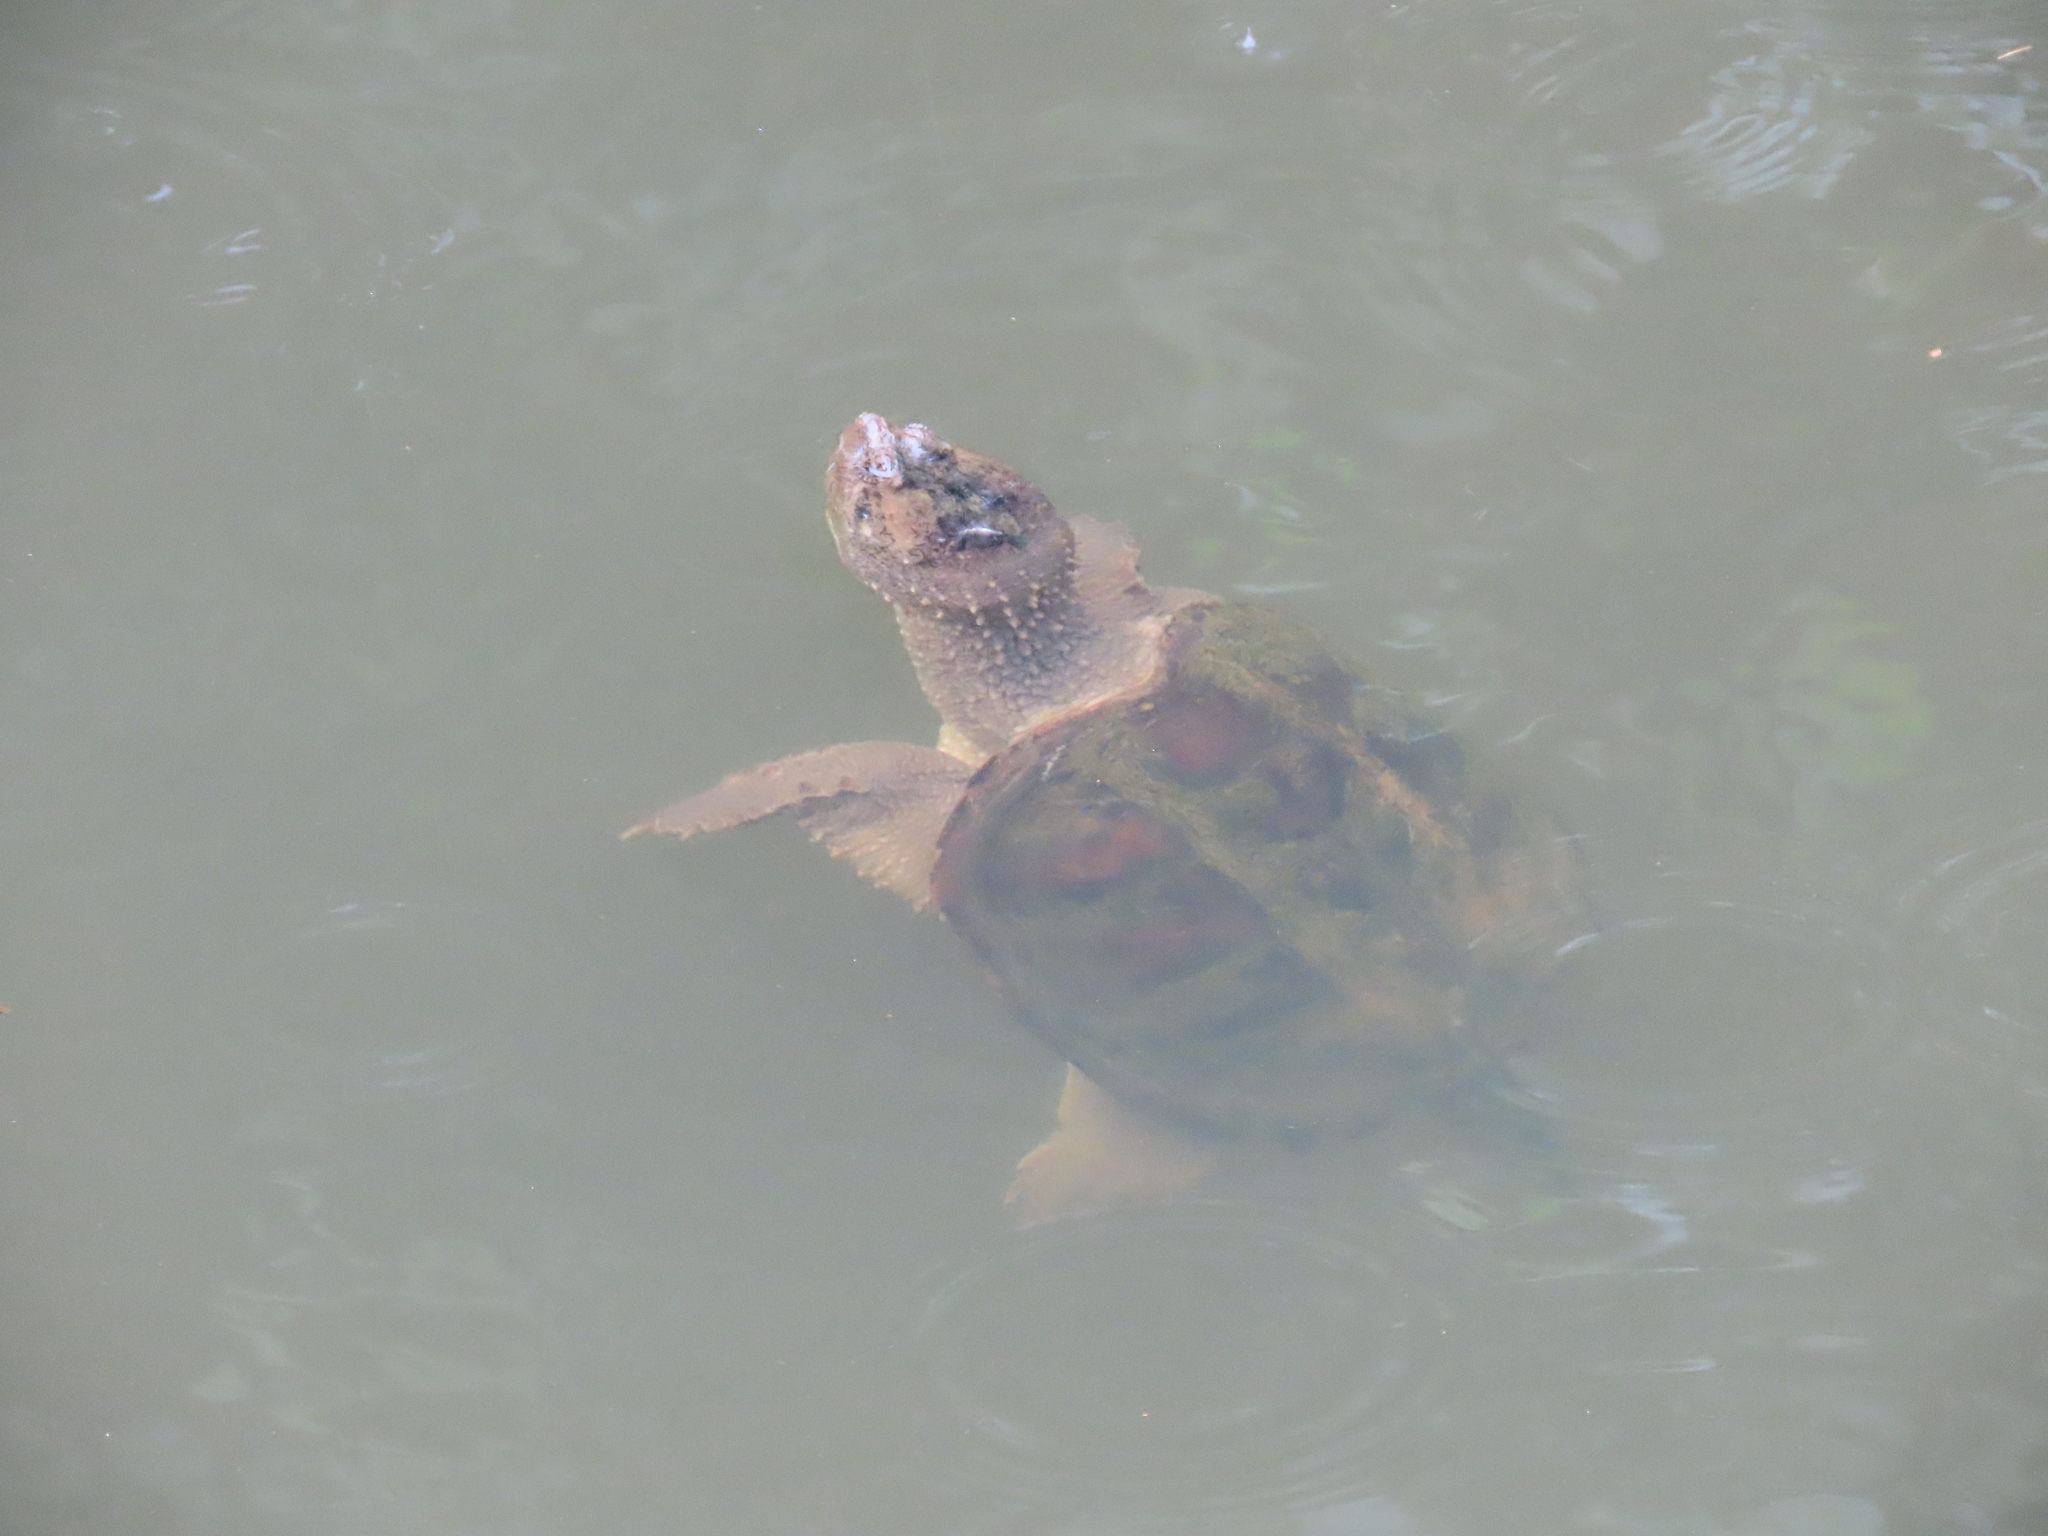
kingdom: Animalia
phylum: Chordata
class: Testudines
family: Chelydridae
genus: Chelydra
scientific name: Chelydra serpentina
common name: Common snapping turtle
